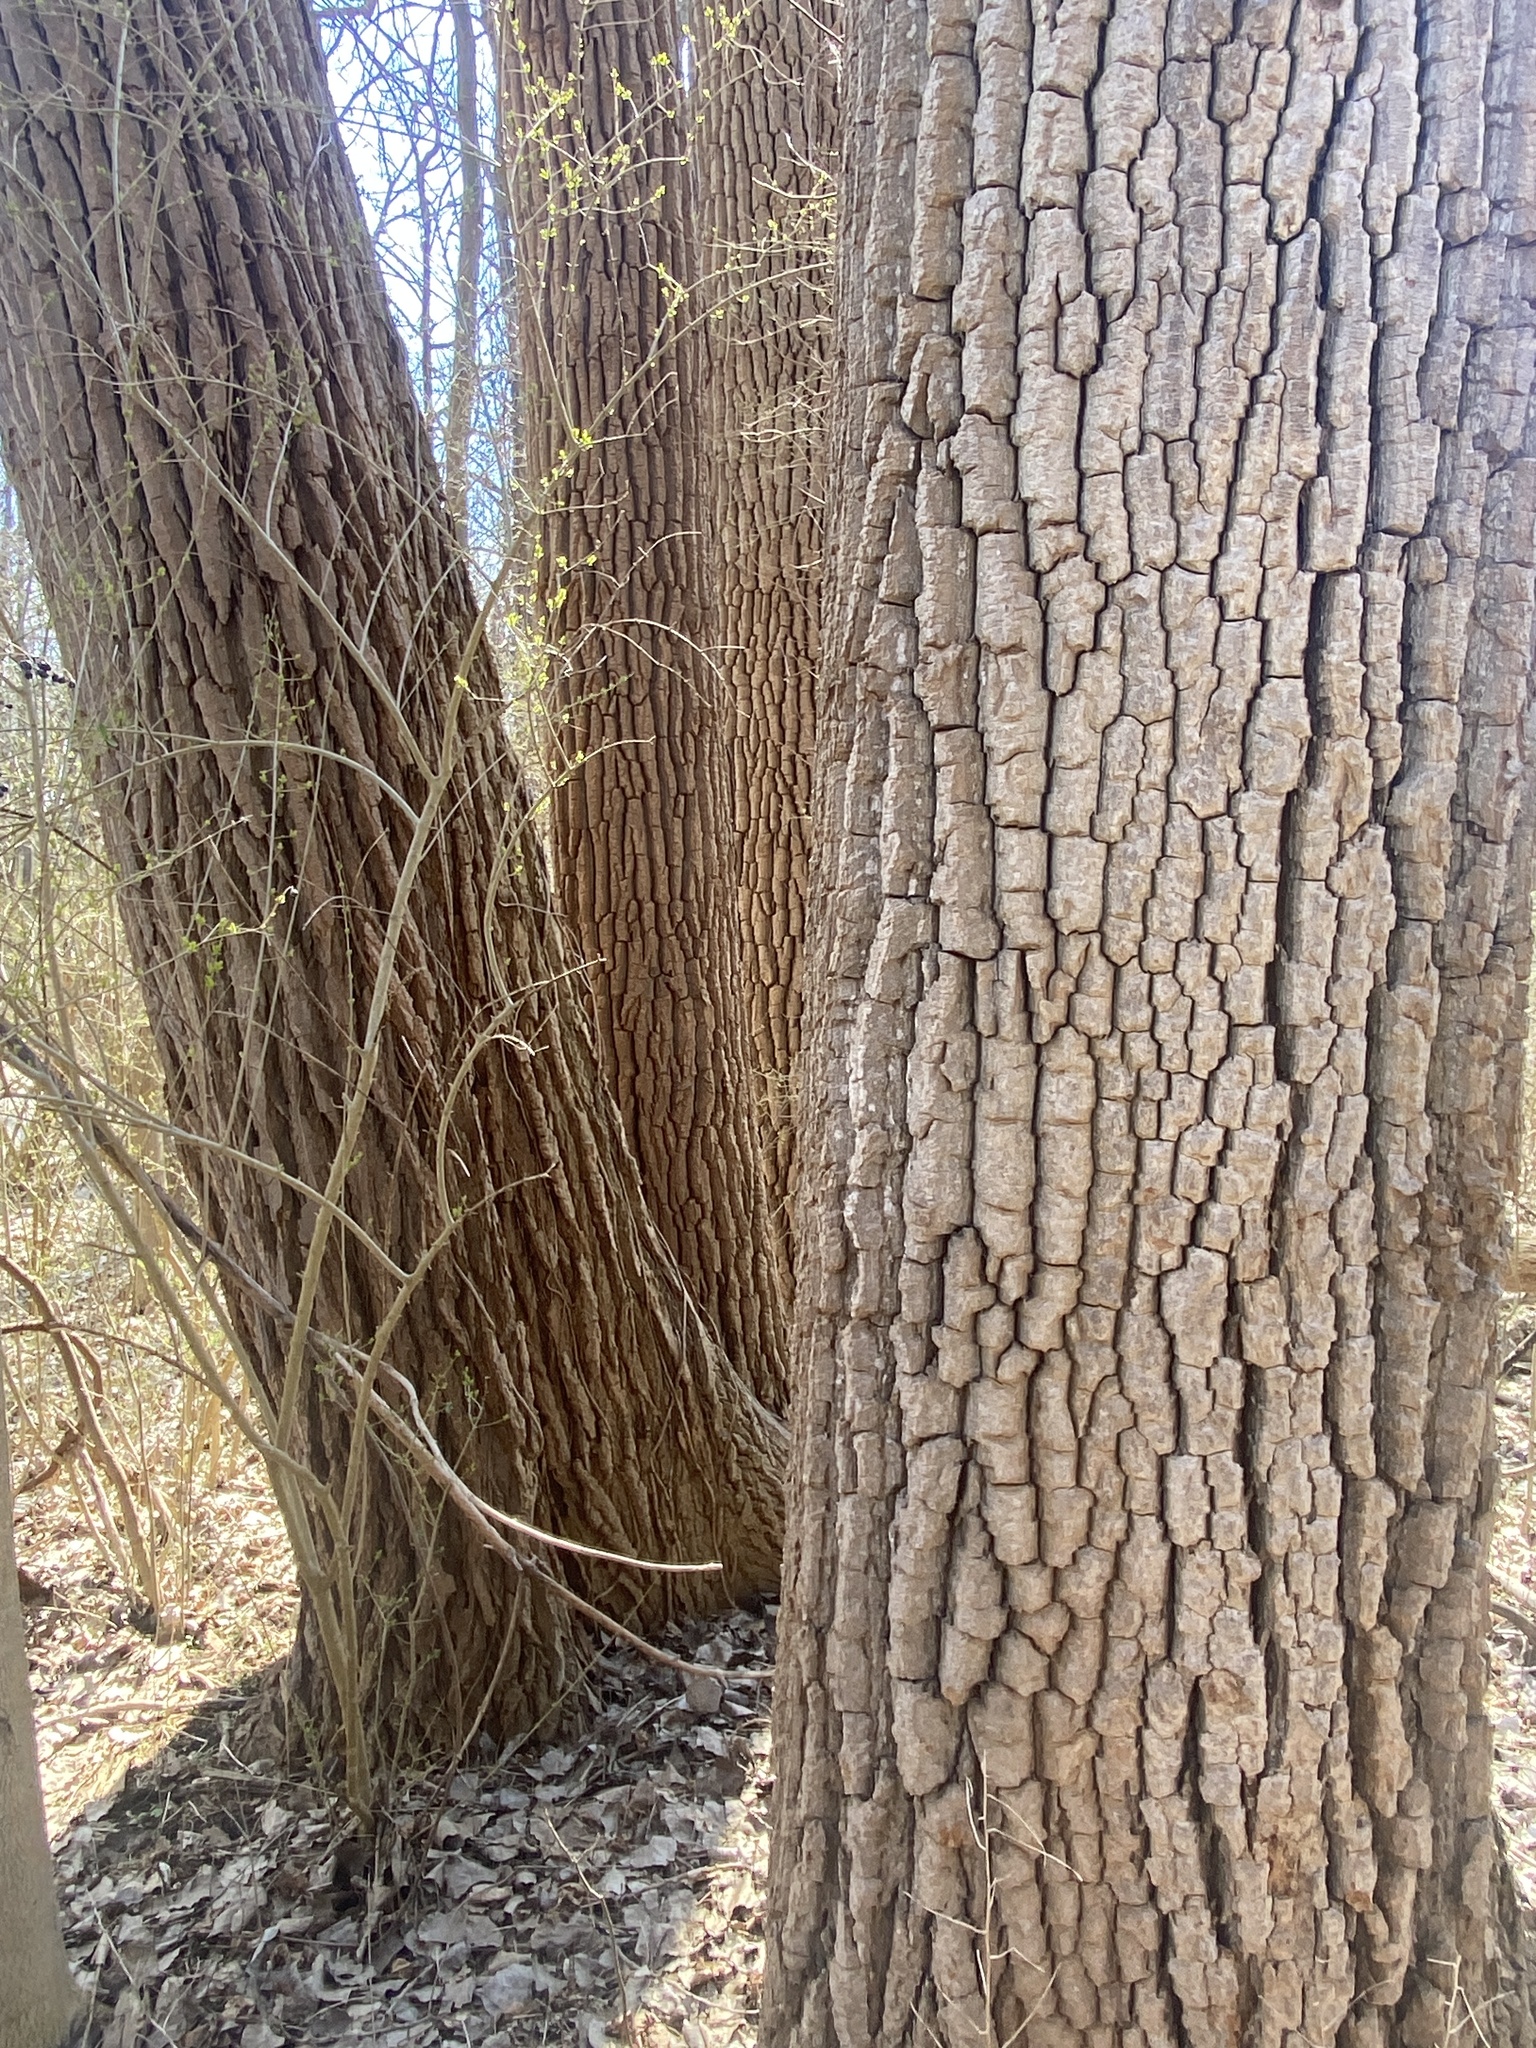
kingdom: Plantae
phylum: Tracheophyta
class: Magnoliopsida
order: Malpighiales
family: Salicaceae
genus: Populus
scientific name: Populus deltoides
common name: Eastern cottonwood
